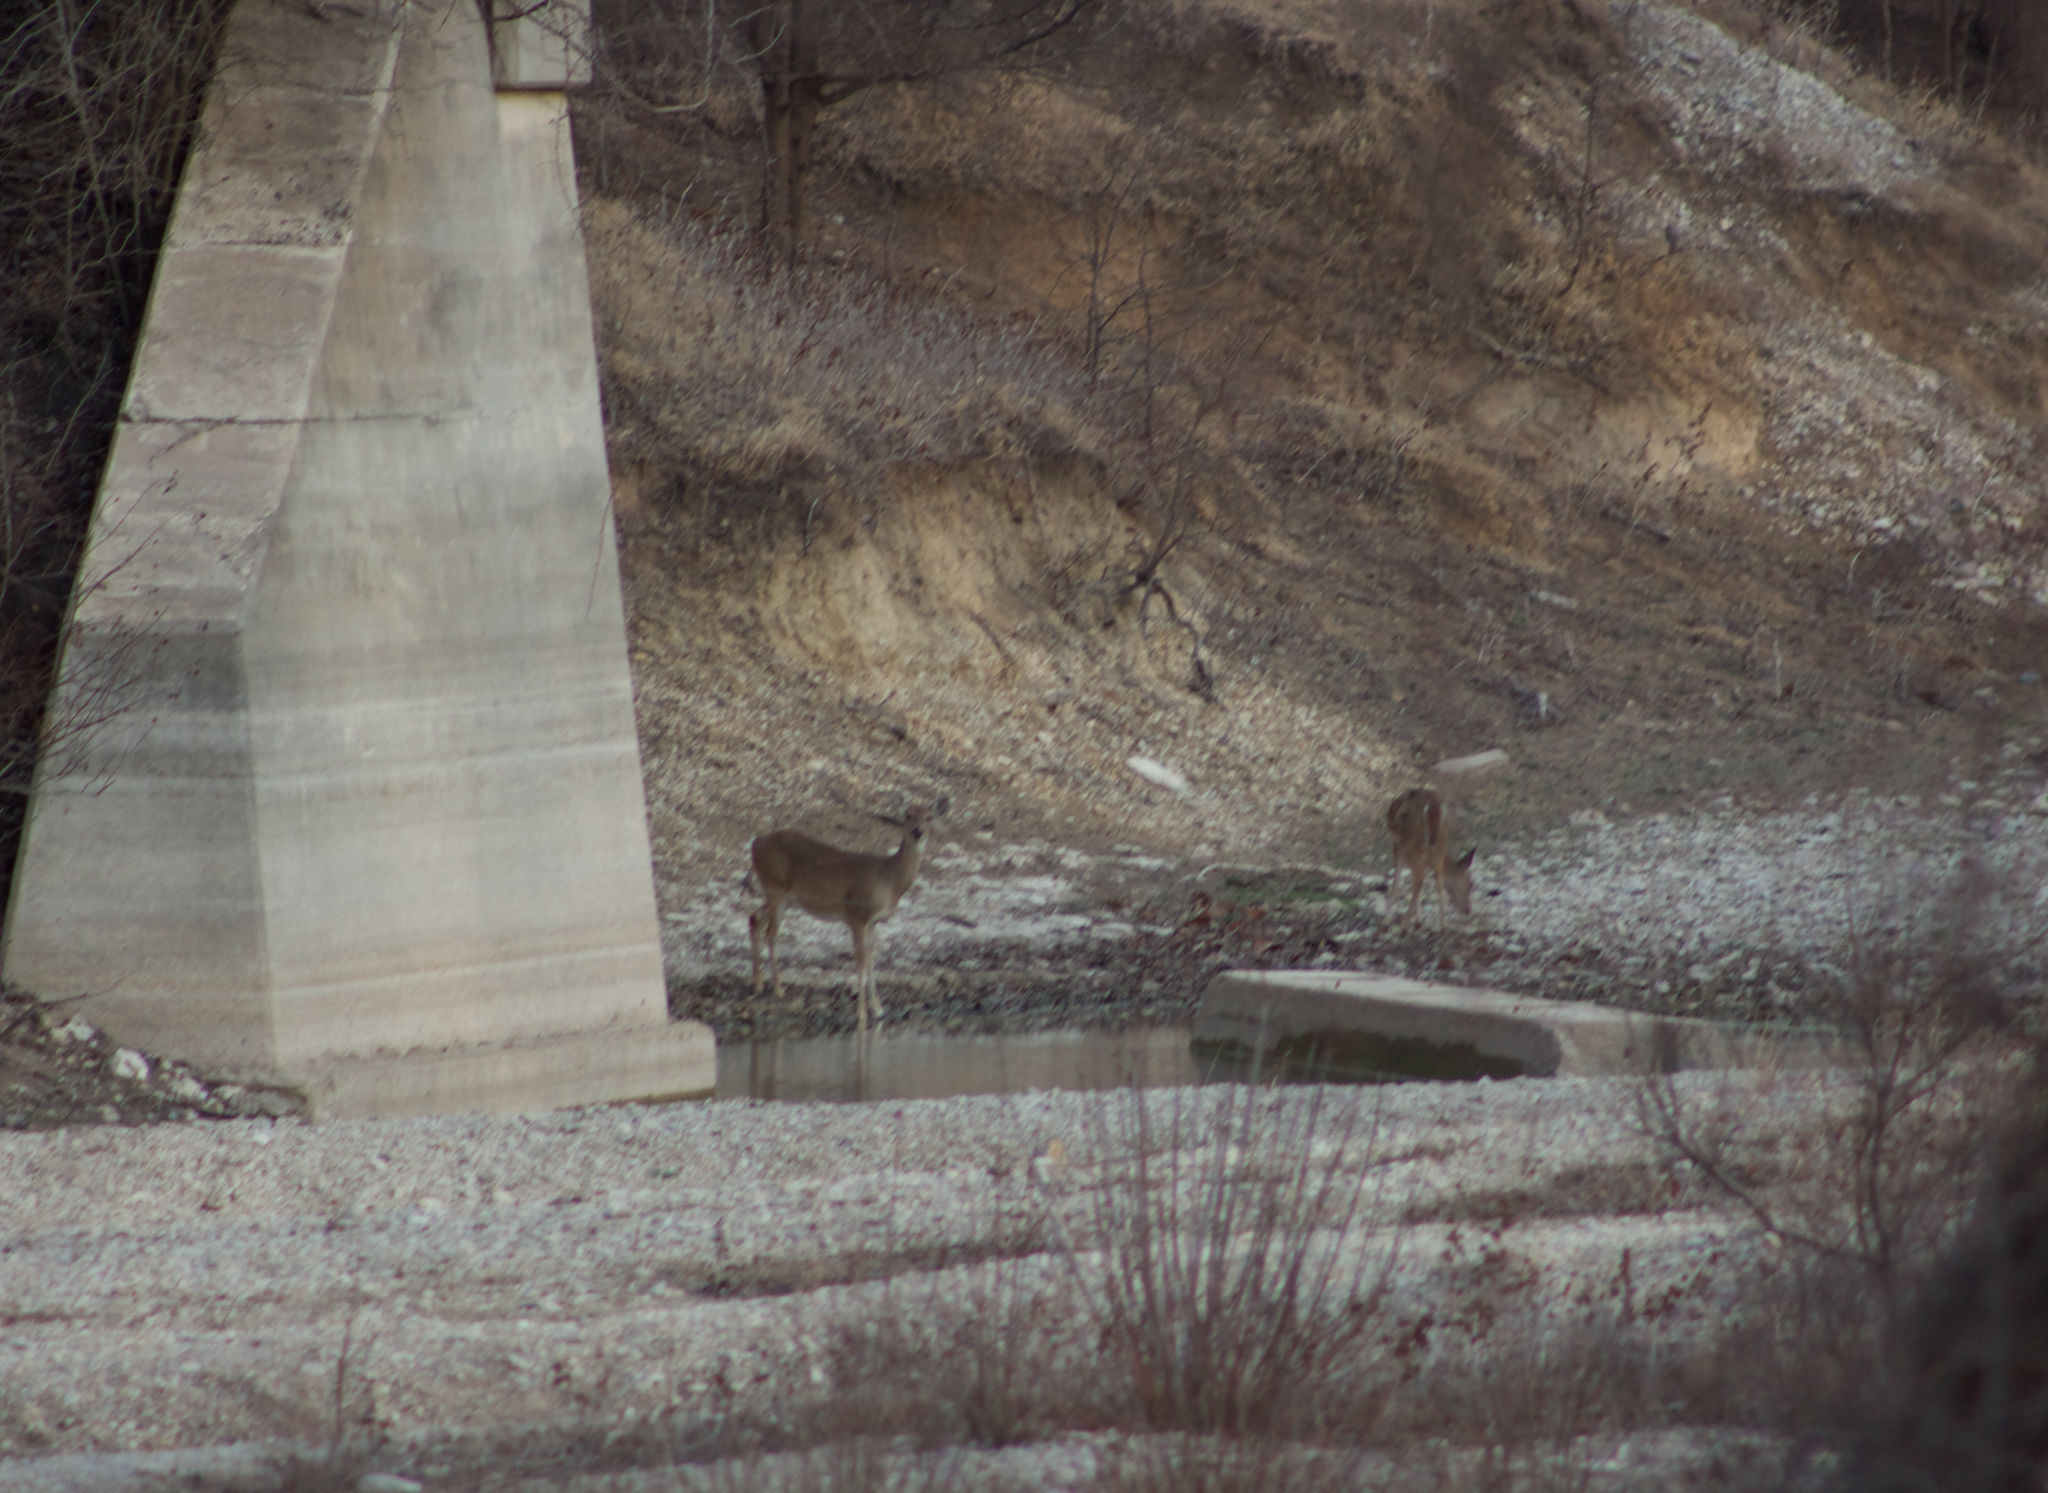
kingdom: Animalia
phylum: Chordata
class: Mammalia
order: Artiodactyla
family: Cervidae
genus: Odocoileus
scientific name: Odocoileus virginianus
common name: White-tailed deer
